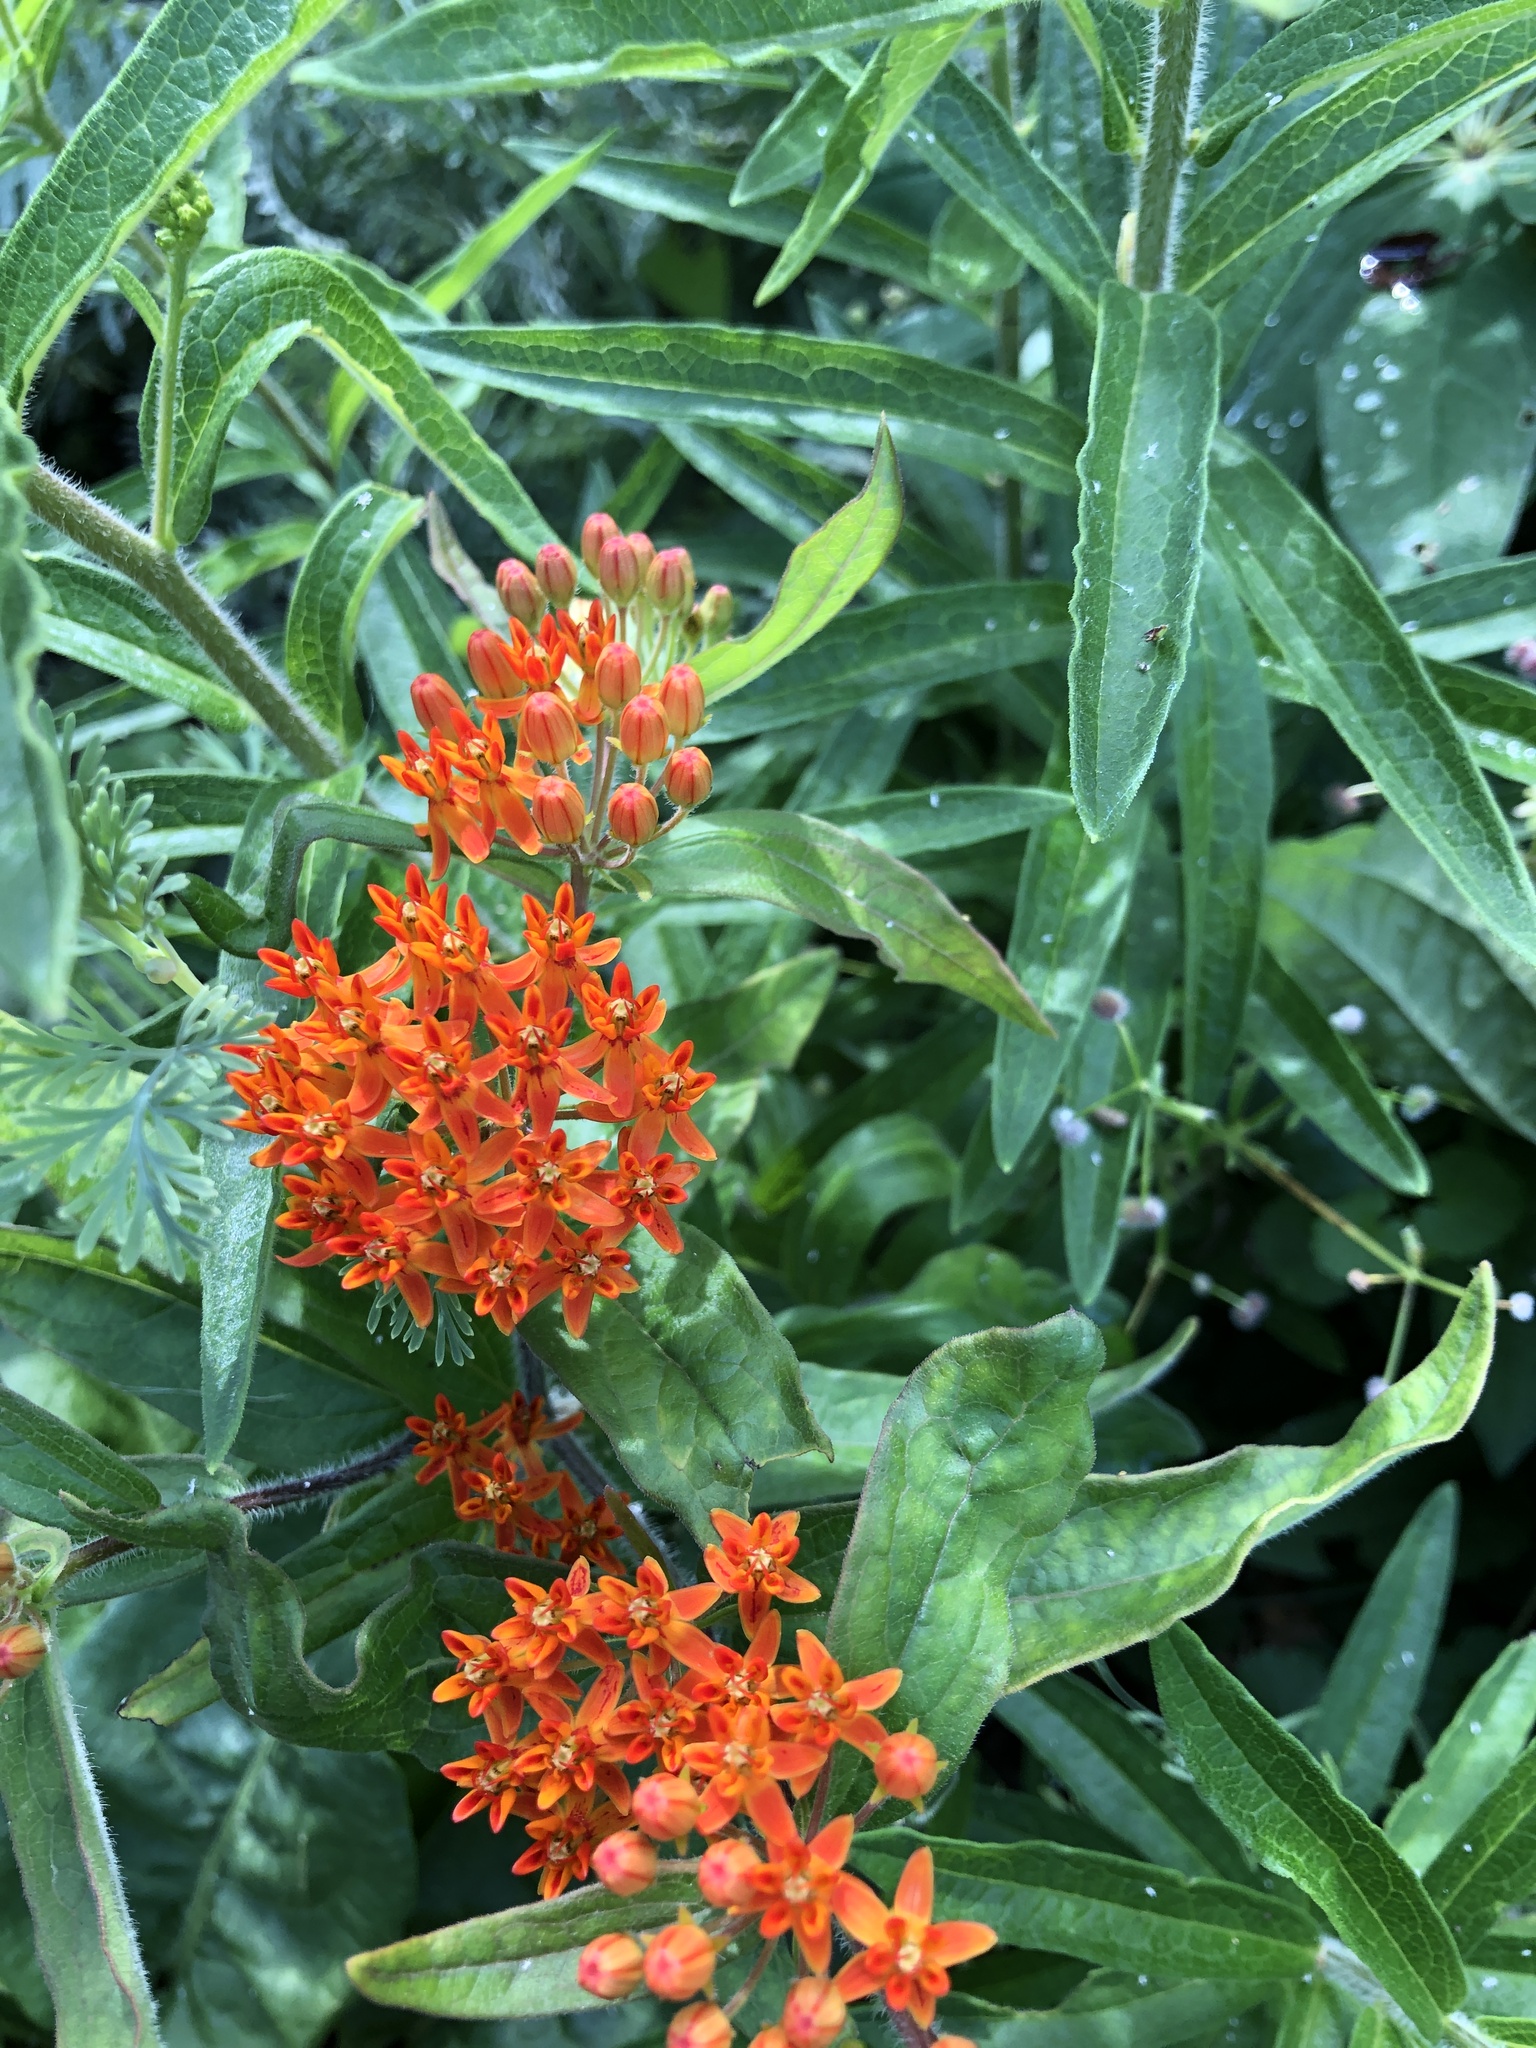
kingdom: Plantae
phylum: Tracheophyta
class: Magnoliopsida
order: Gentianales
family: Apocynaceae
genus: Asclepias
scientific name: Asclepias tuberosa
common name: Butterfly milkweed
